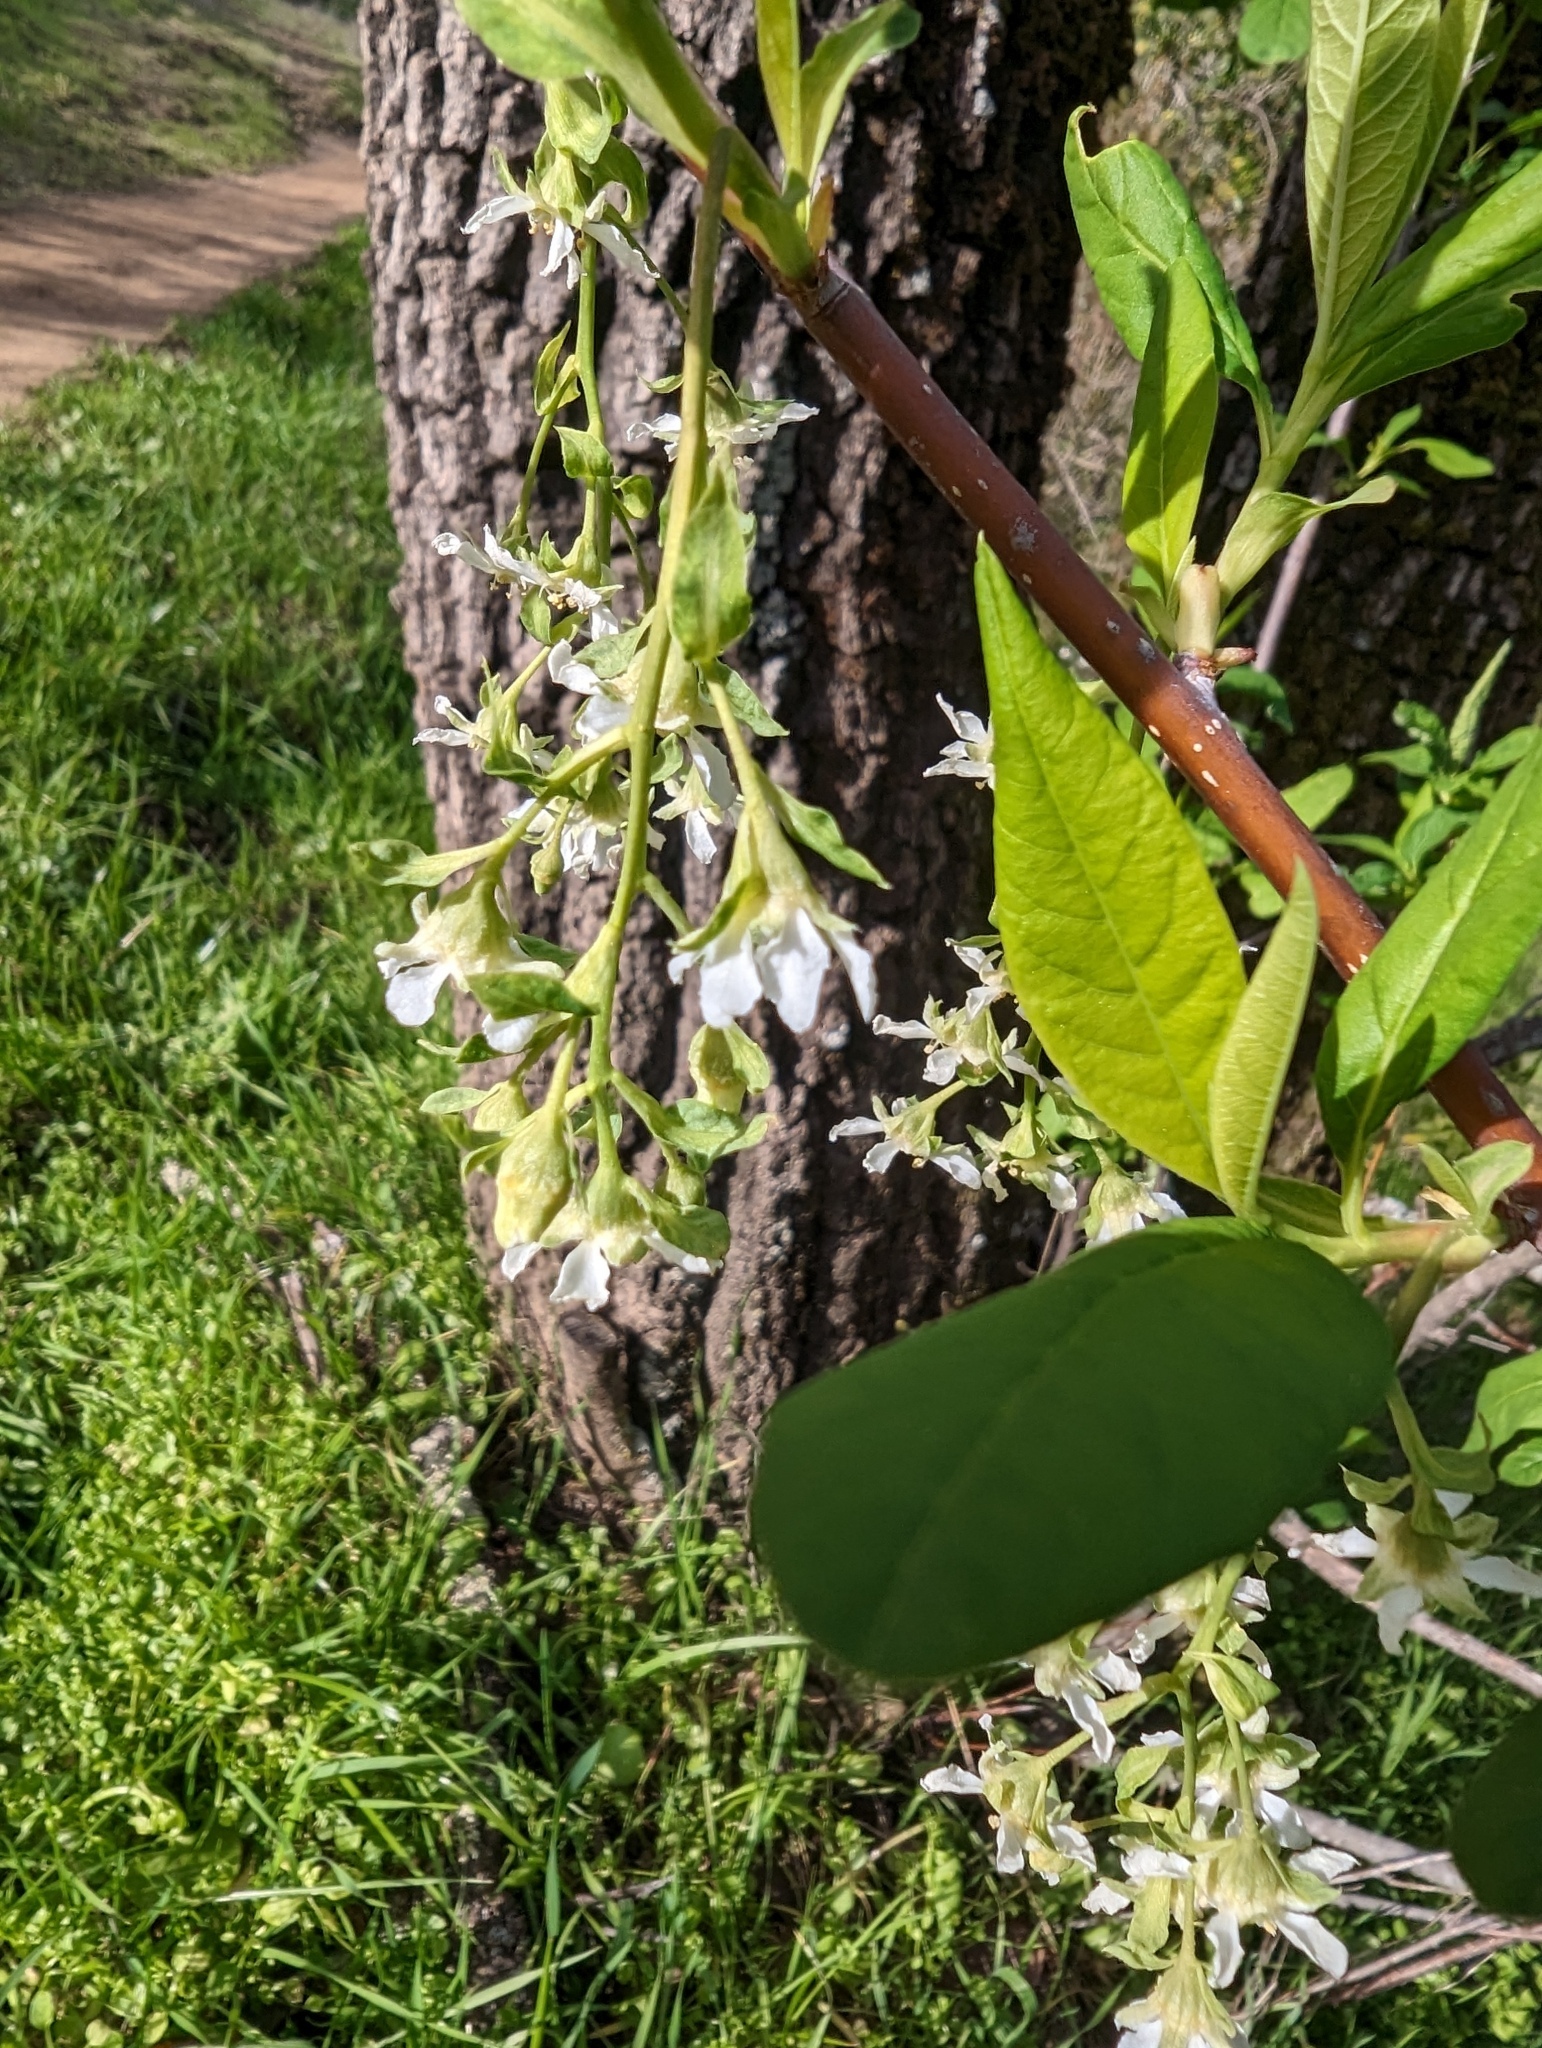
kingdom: Plantae
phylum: Tracheophyta
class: Magnoliopsida
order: Rosales
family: Rosaceae
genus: Oemleria
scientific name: Oemleria cerasiformis
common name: Osoberry
